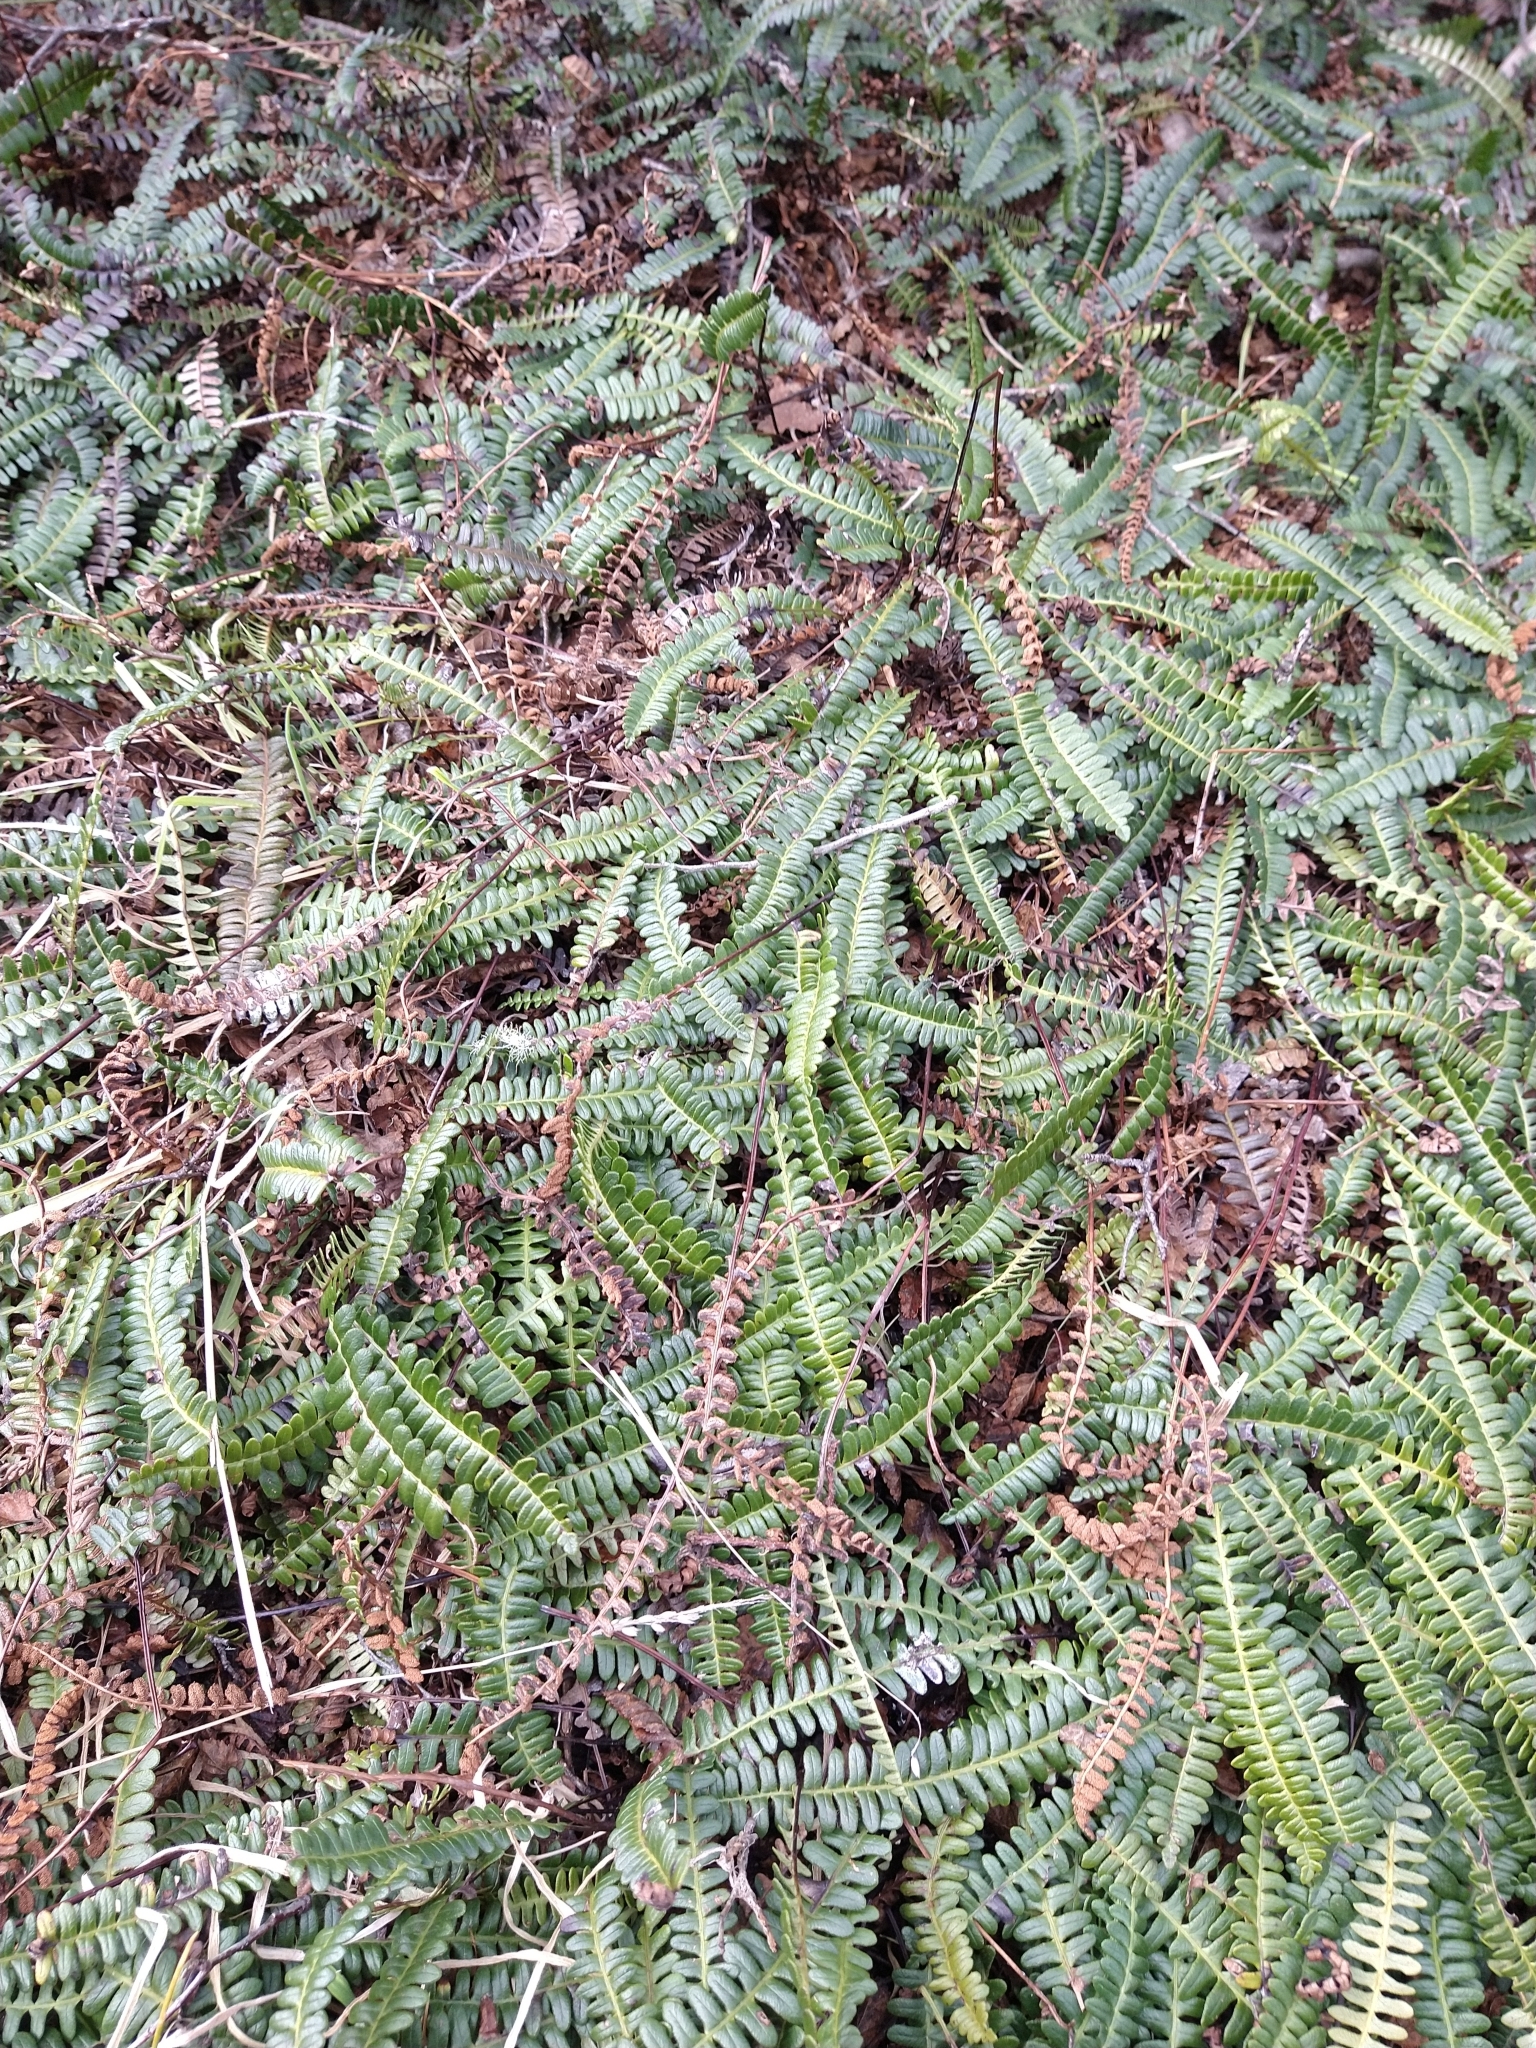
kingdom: Plantae
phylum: Tracheophyta
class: Polypodiopsida
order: Polypodiales
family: Blechnaceae
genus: Austroblechnum
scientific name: Austroblechnum penna-marina
